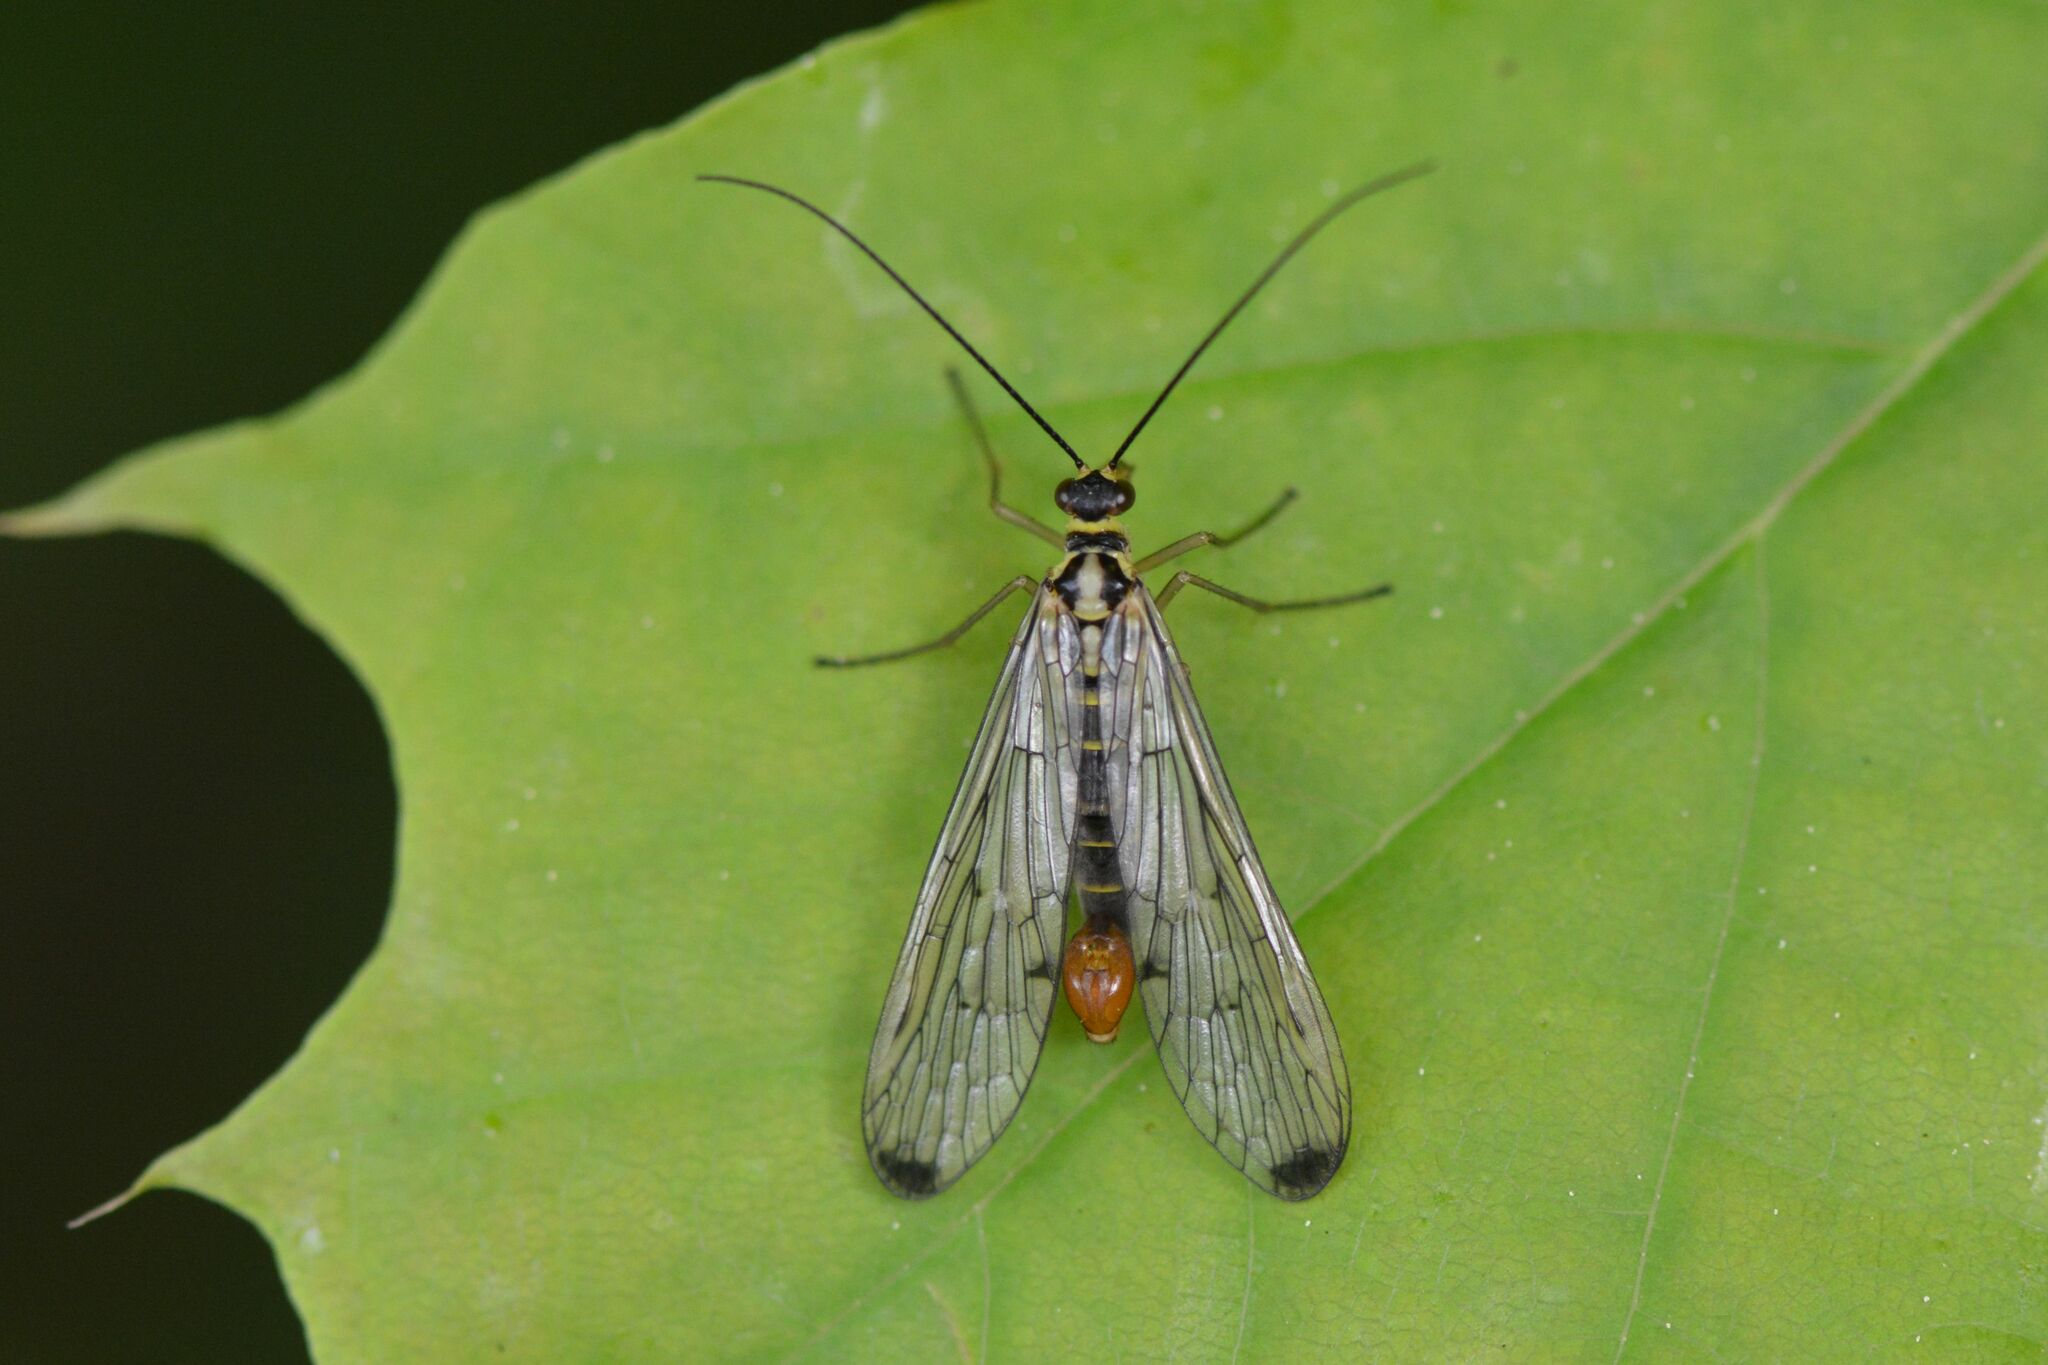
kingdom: Animalia
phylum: Arthropoda
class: Insecta
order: Mecoptera
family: Panorpidae
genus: Panorpa
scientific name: Panorpa germanica
